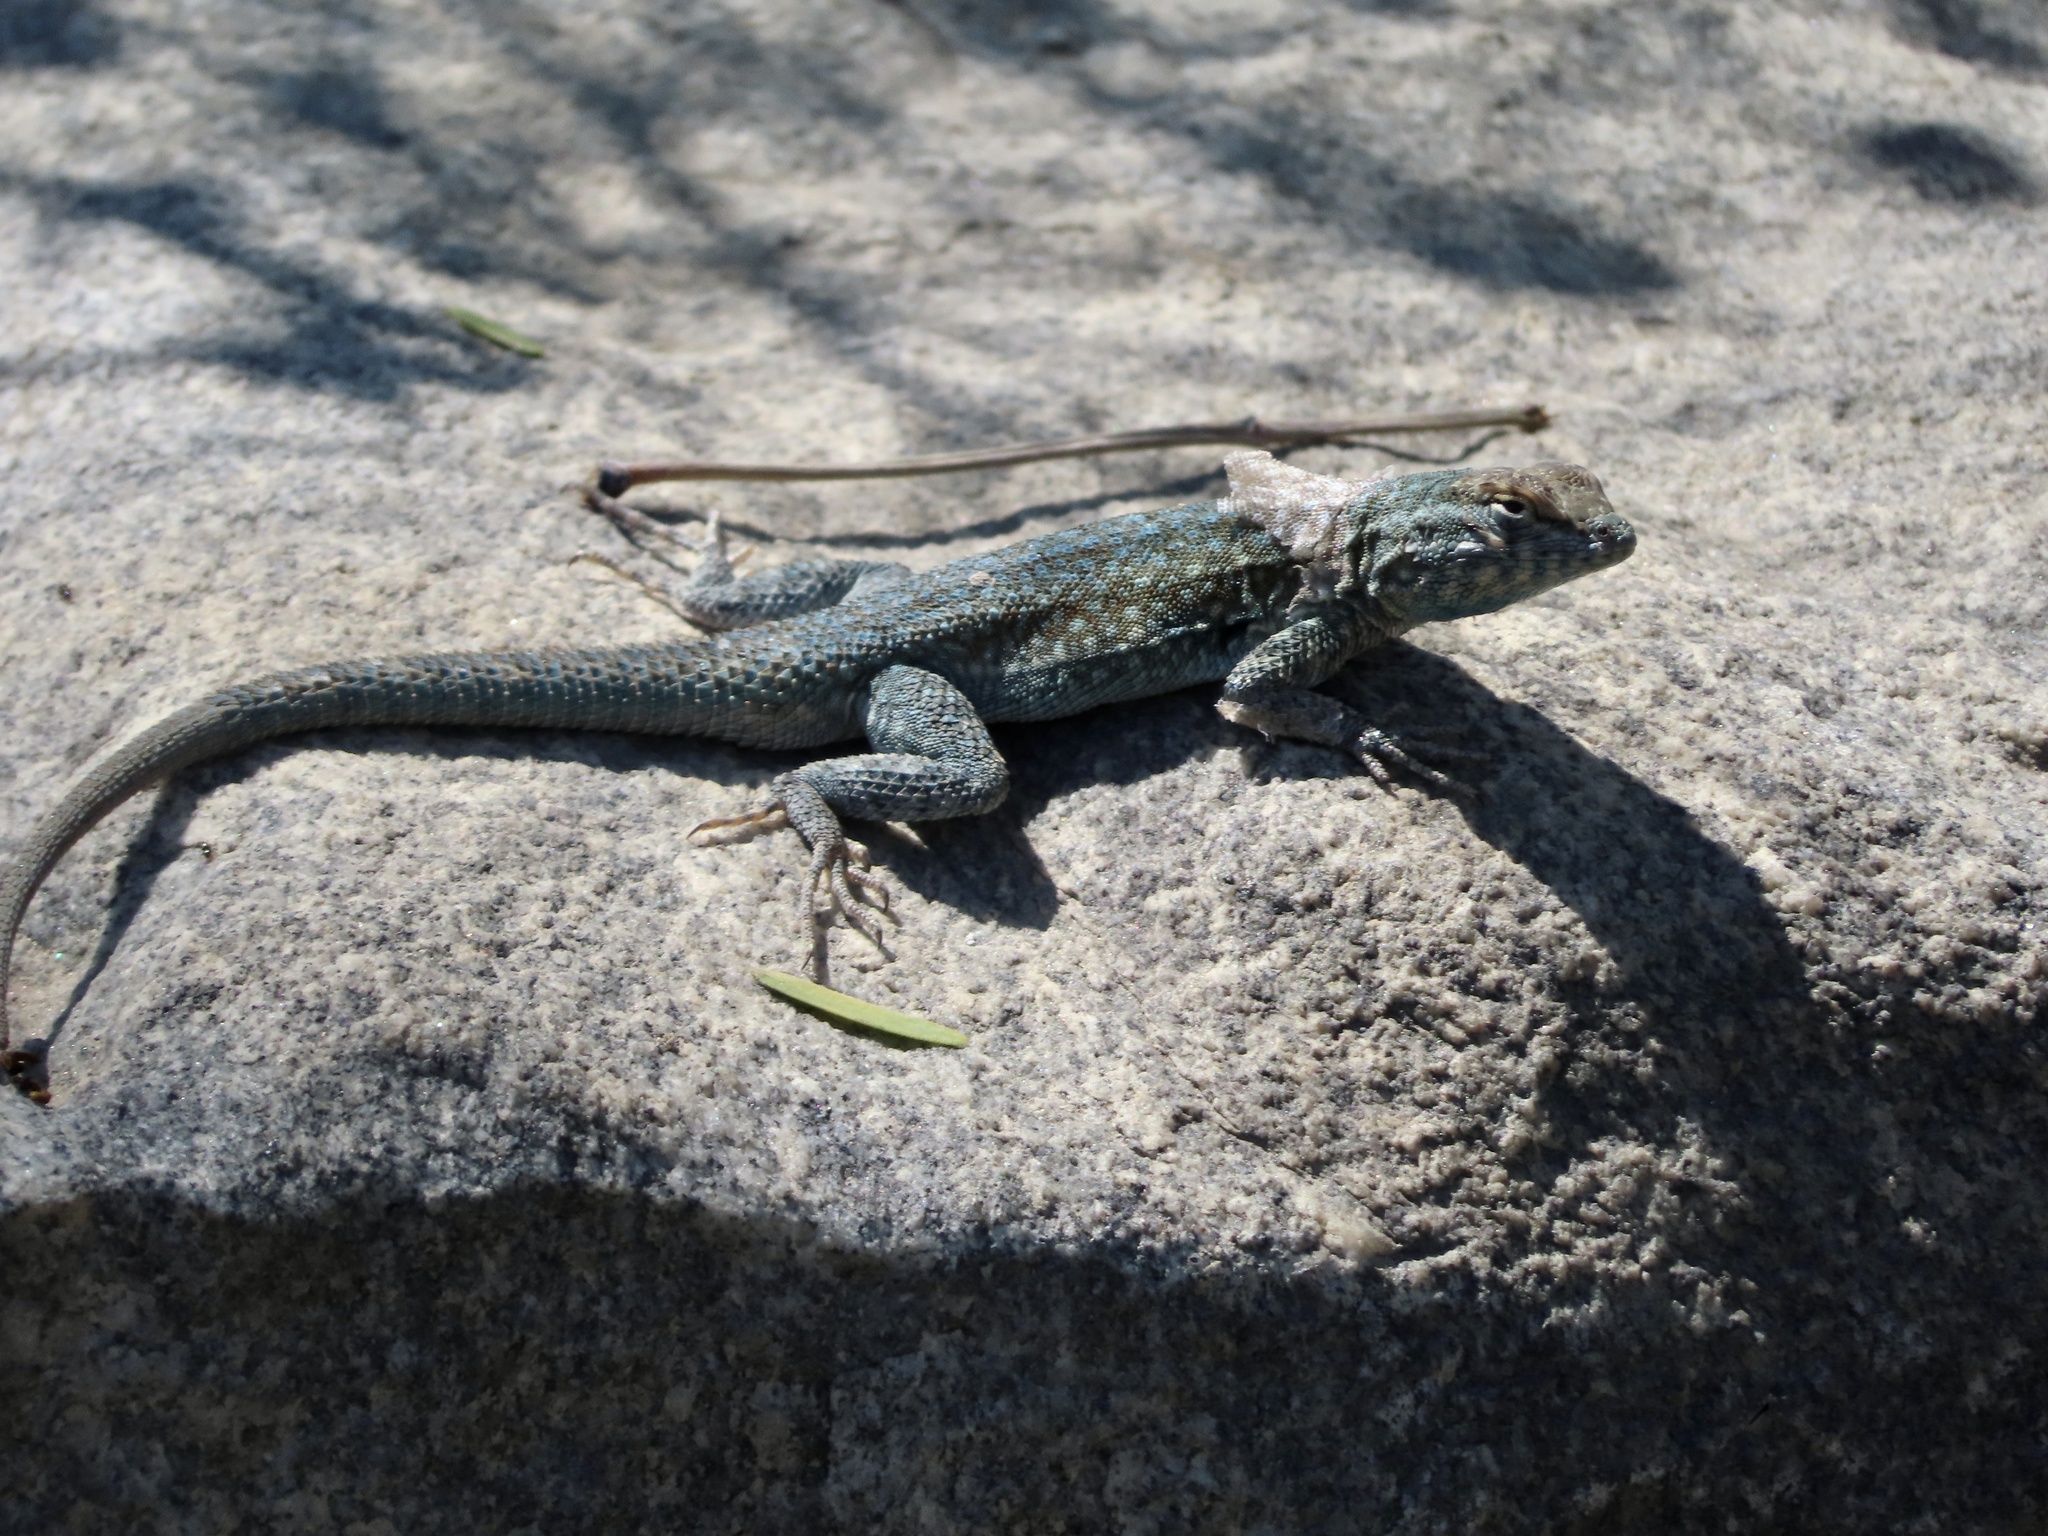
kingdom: Animalia
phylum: Chordata
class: Squamata
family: Phrynosomatidae
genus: Uta
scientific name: Uta stansburiana
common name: Side-blotched lizard
